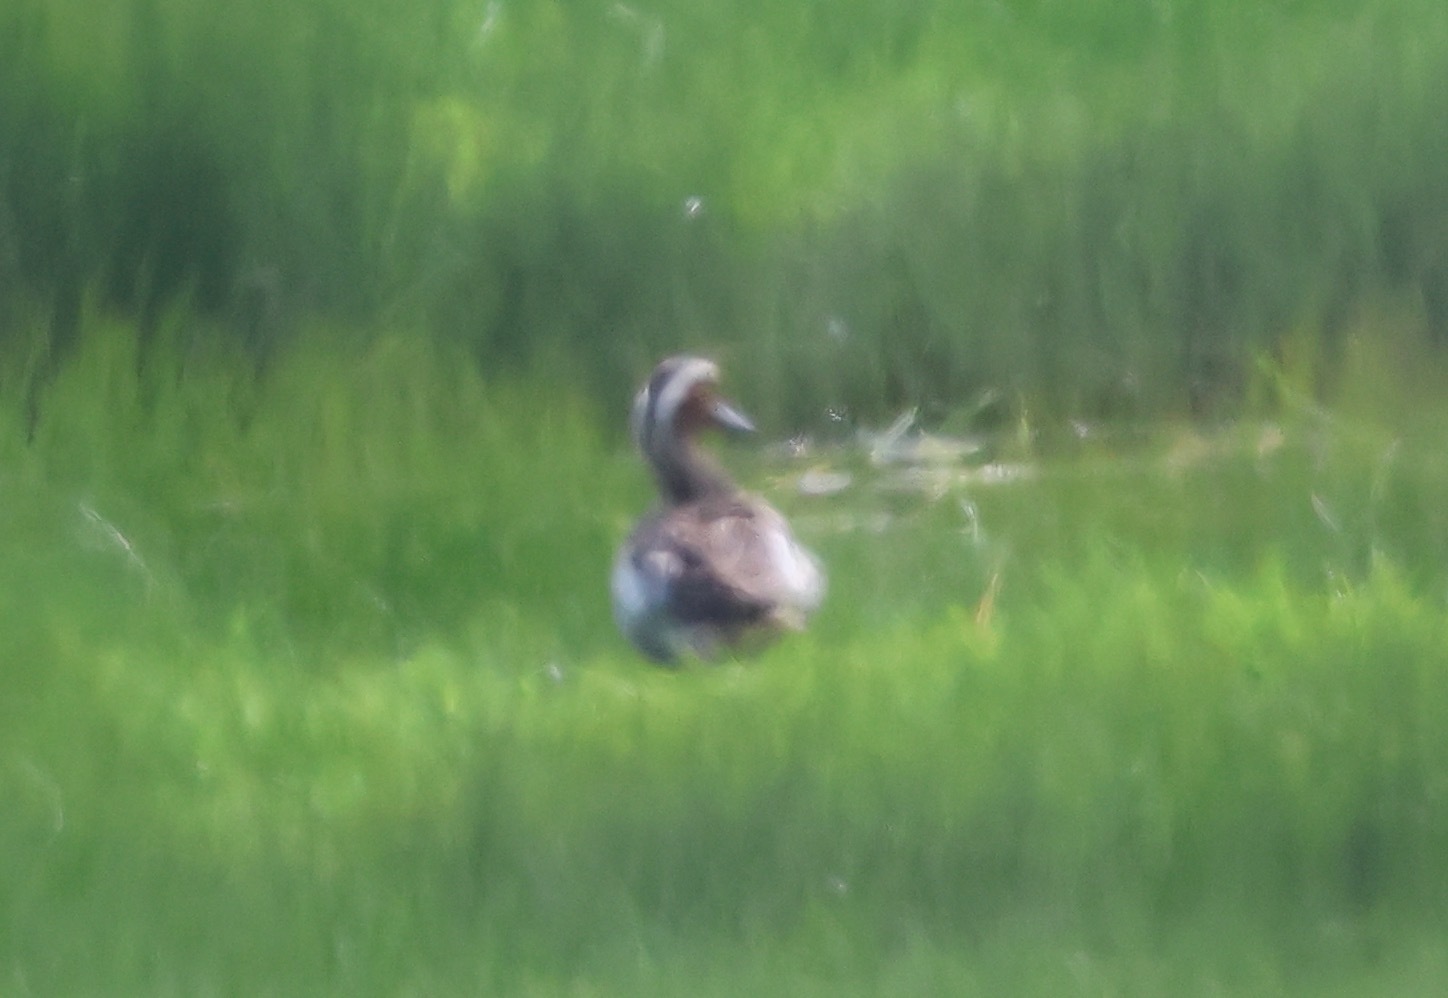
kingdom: Animalia
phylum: Chordata
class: Aves
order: Anseriformes
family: Anatidae
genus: Spatula
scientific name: Spatula querquedula
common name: Garganey
